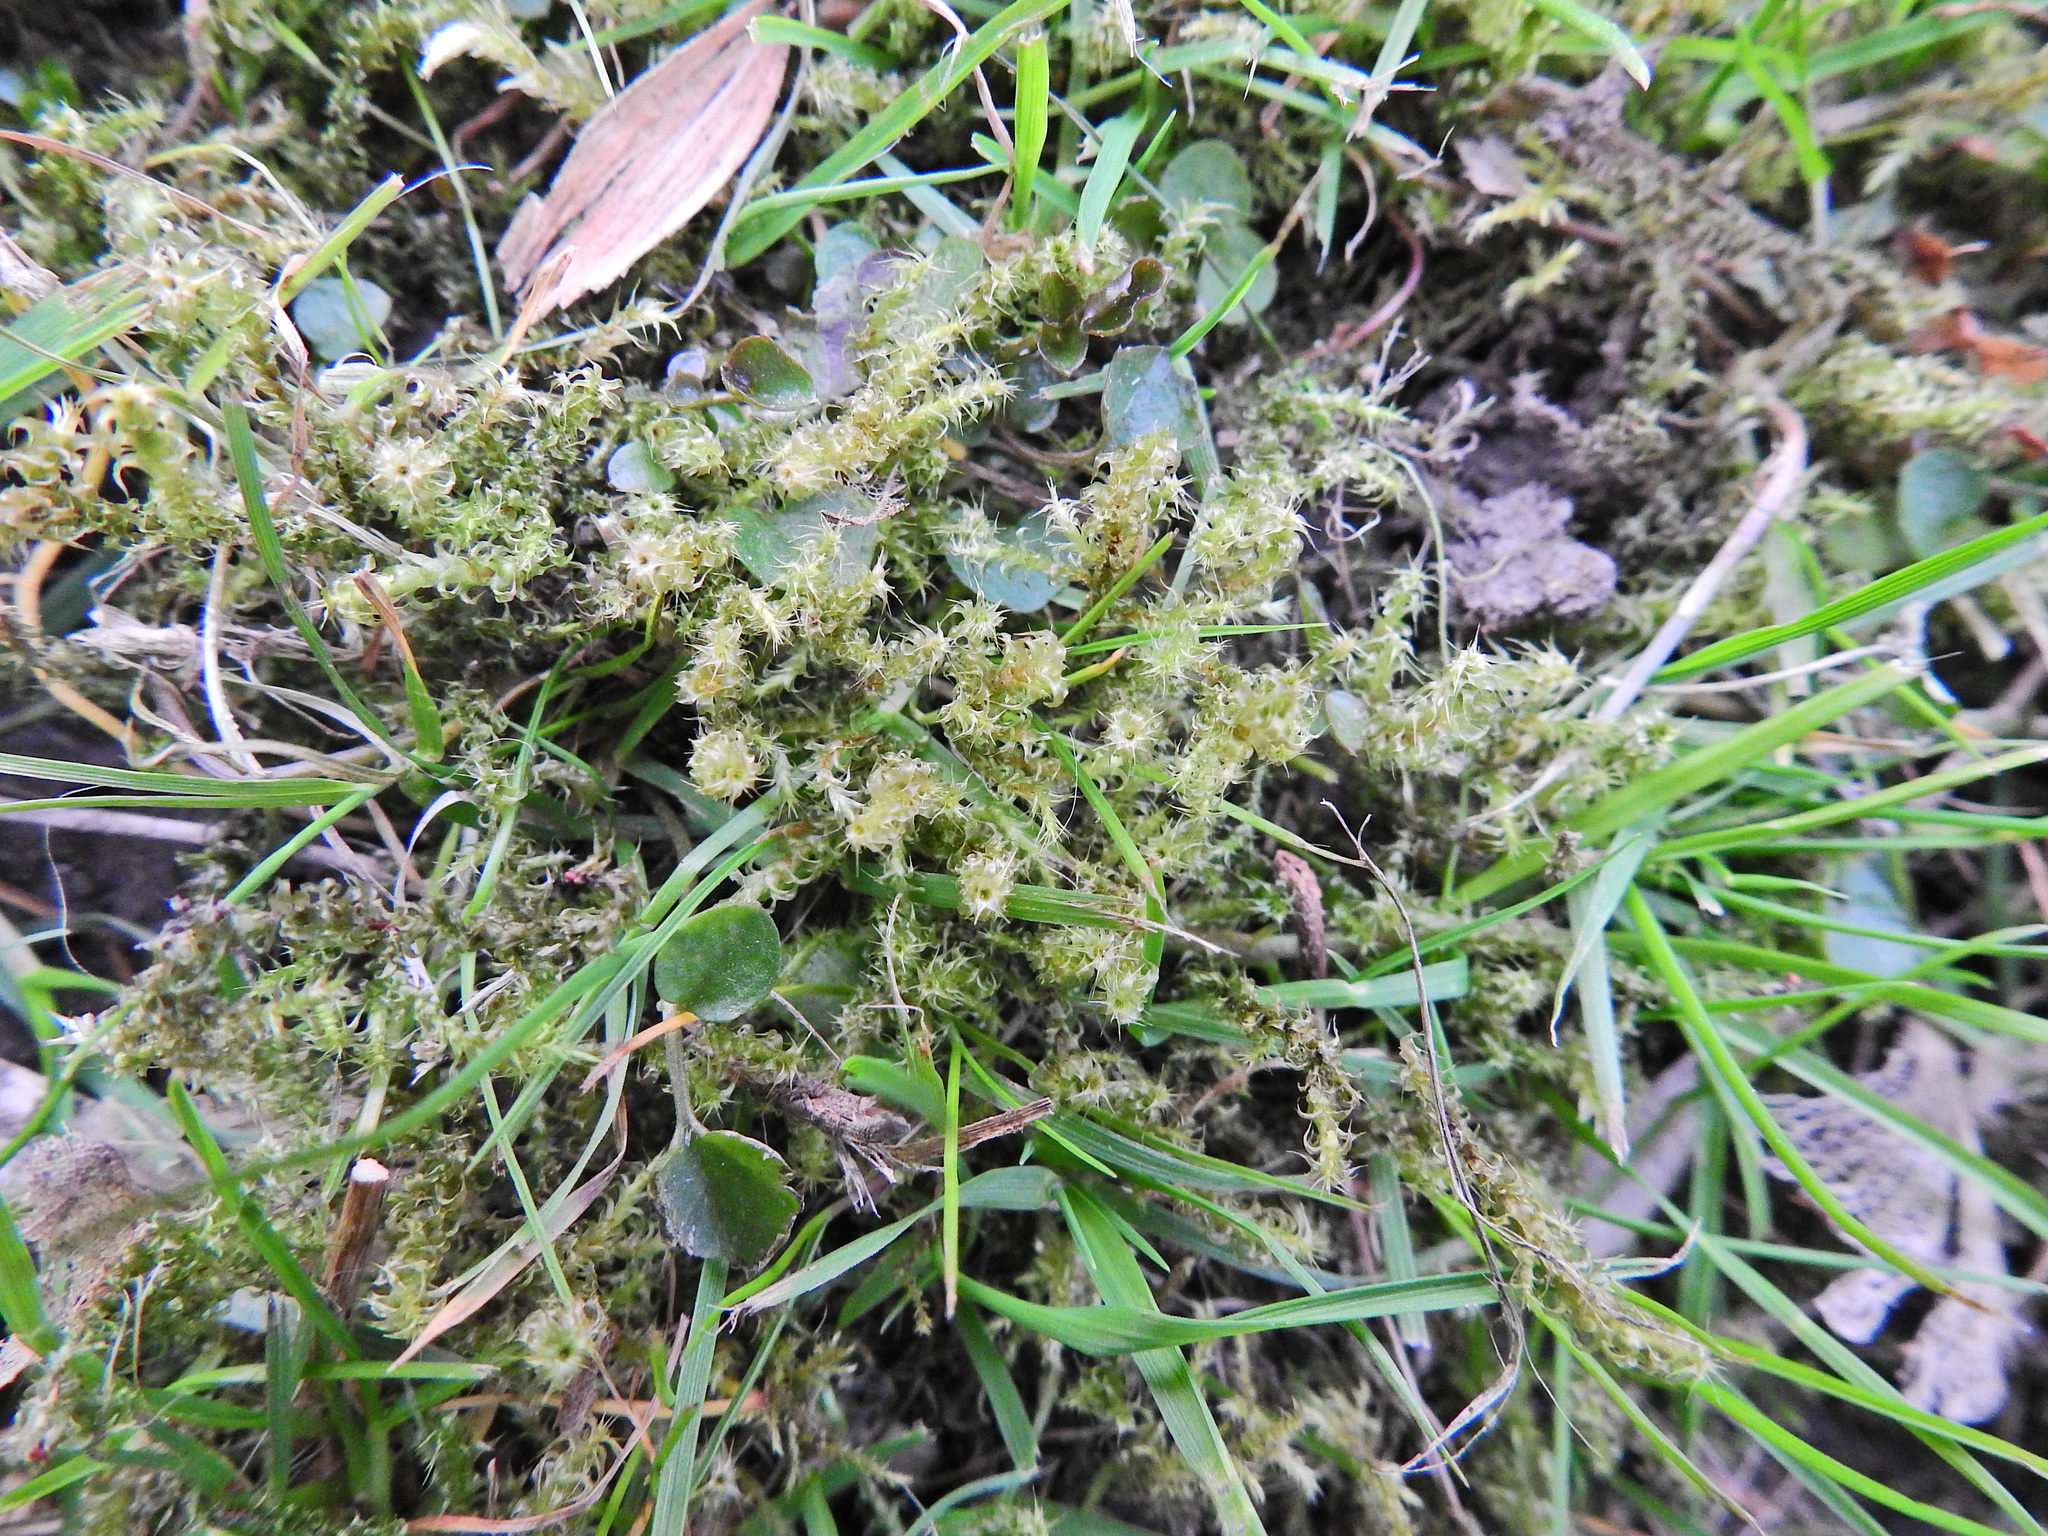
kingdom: Plantae
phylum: Bryophyta
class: Bryopsida
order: Hypnales
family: Hylocomiaceae
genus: Rhytidiadelphus
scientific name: Rhytidiadelphus squarrosus
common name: Springy turf-moss
